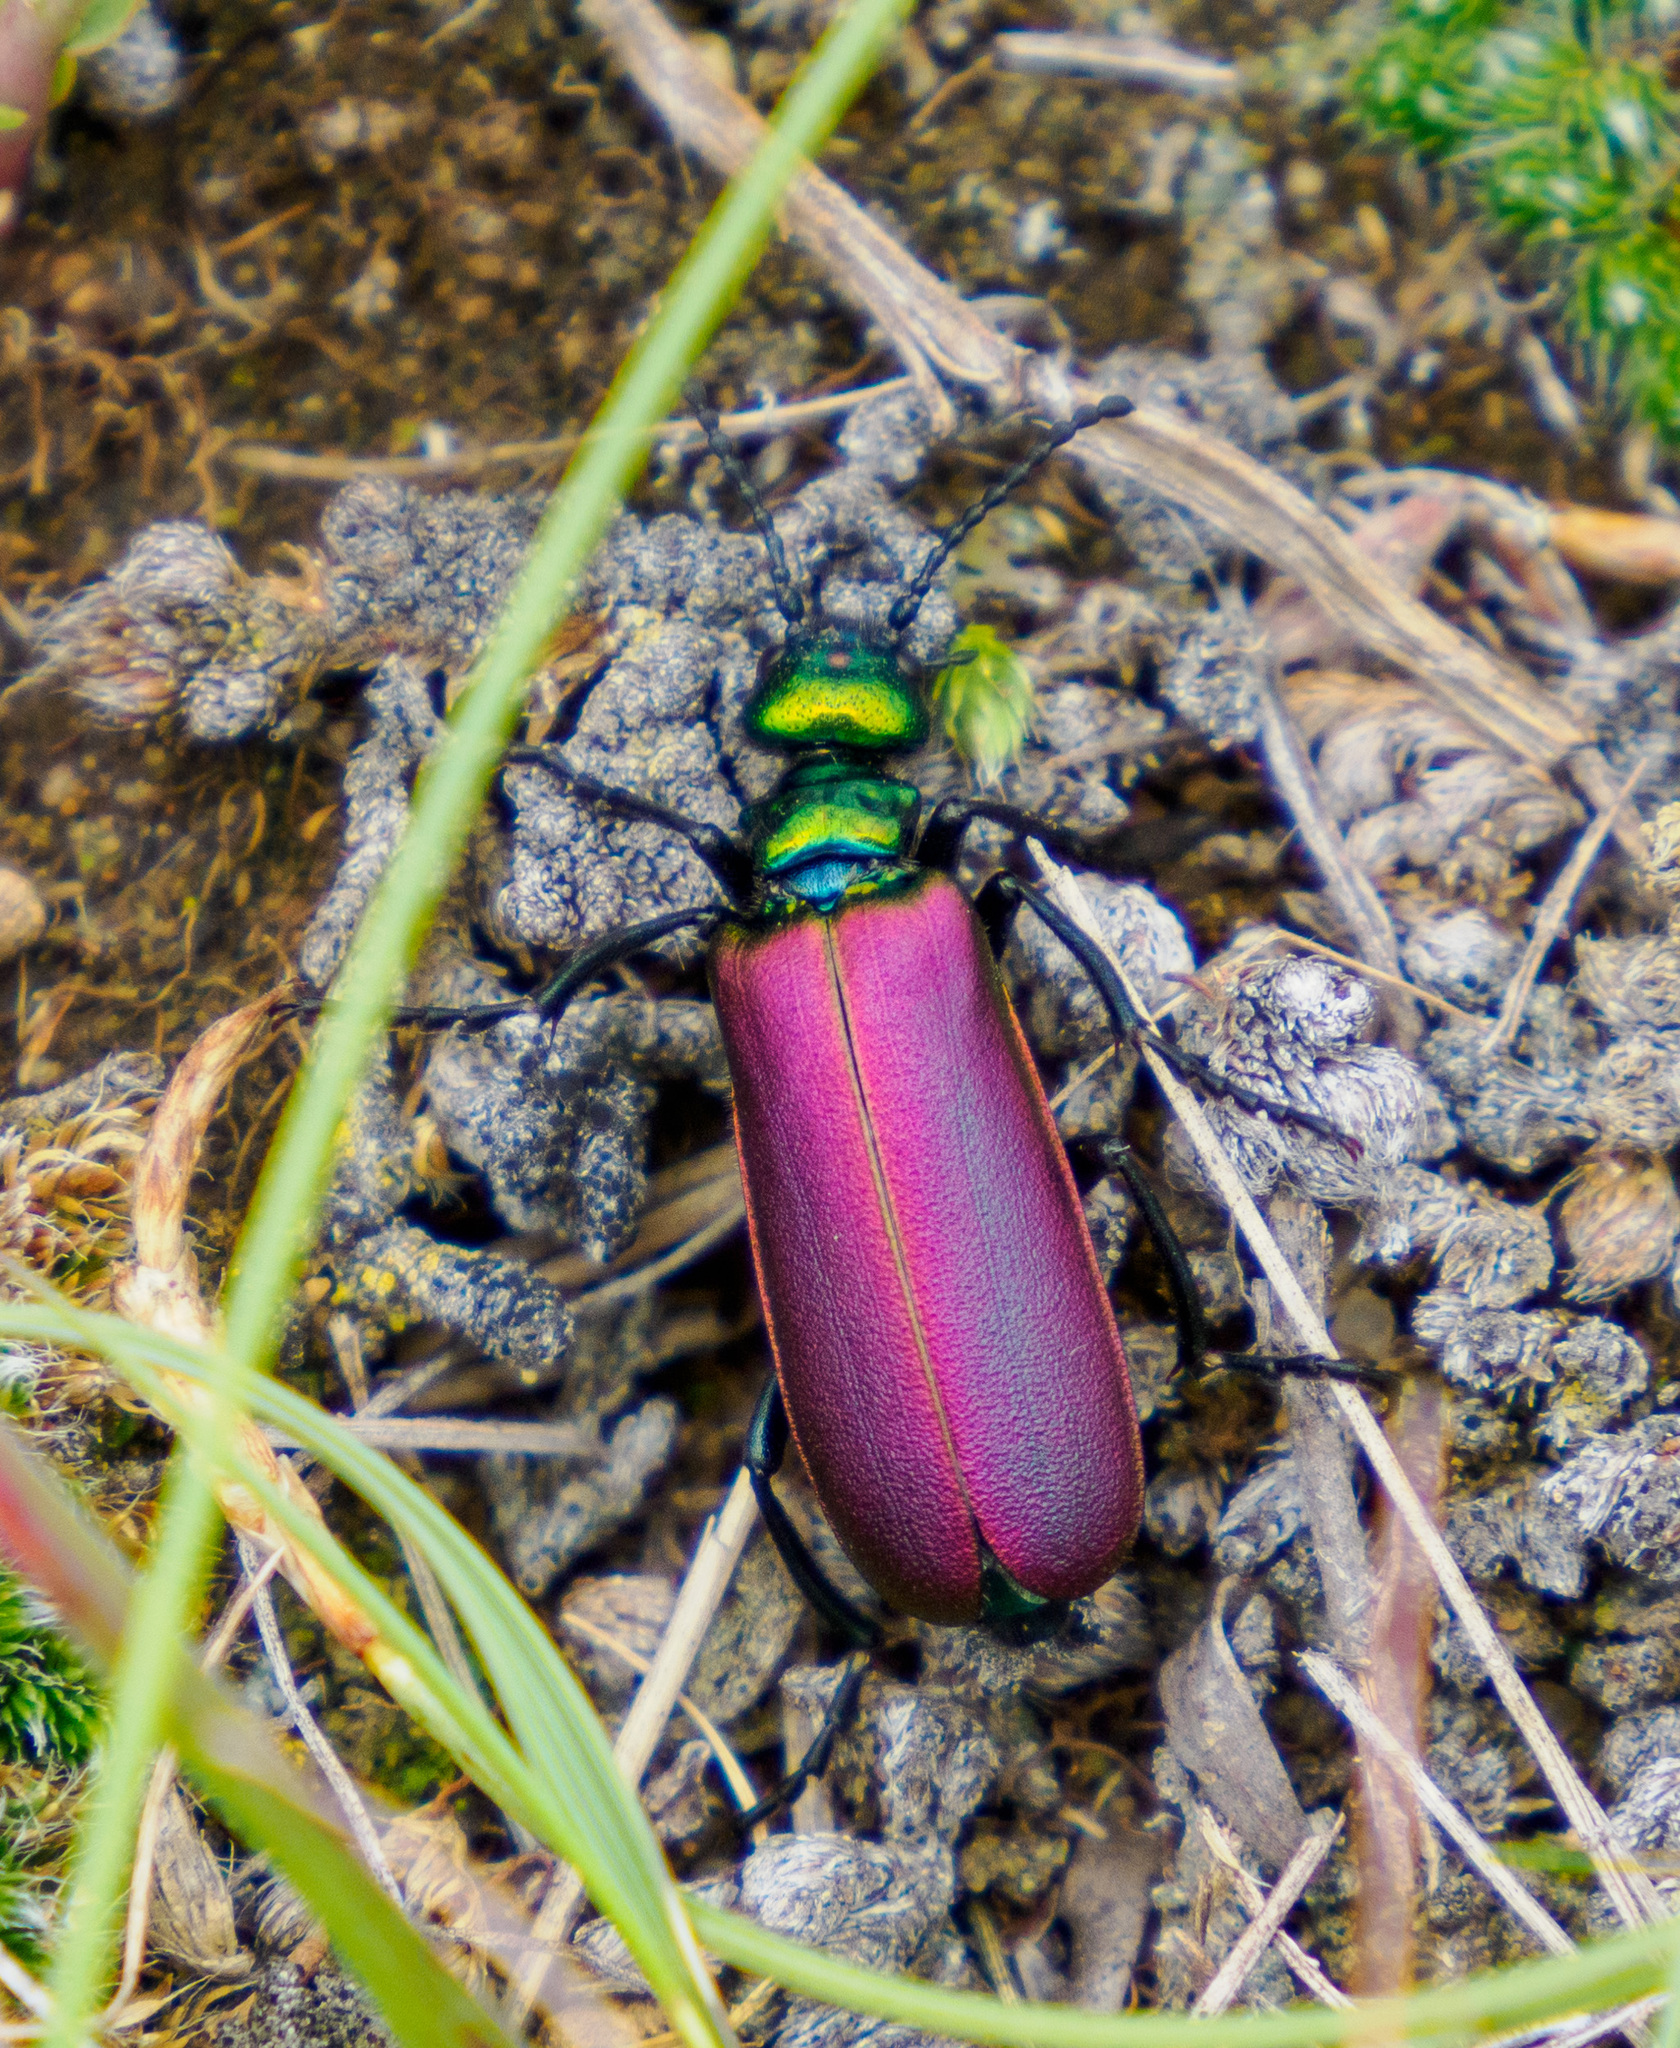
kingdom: Animalia
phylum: Arthropoda
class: Insecta
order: Coleoptera
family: Meloidae
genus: Lytta
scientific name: Lytta nuttallii
